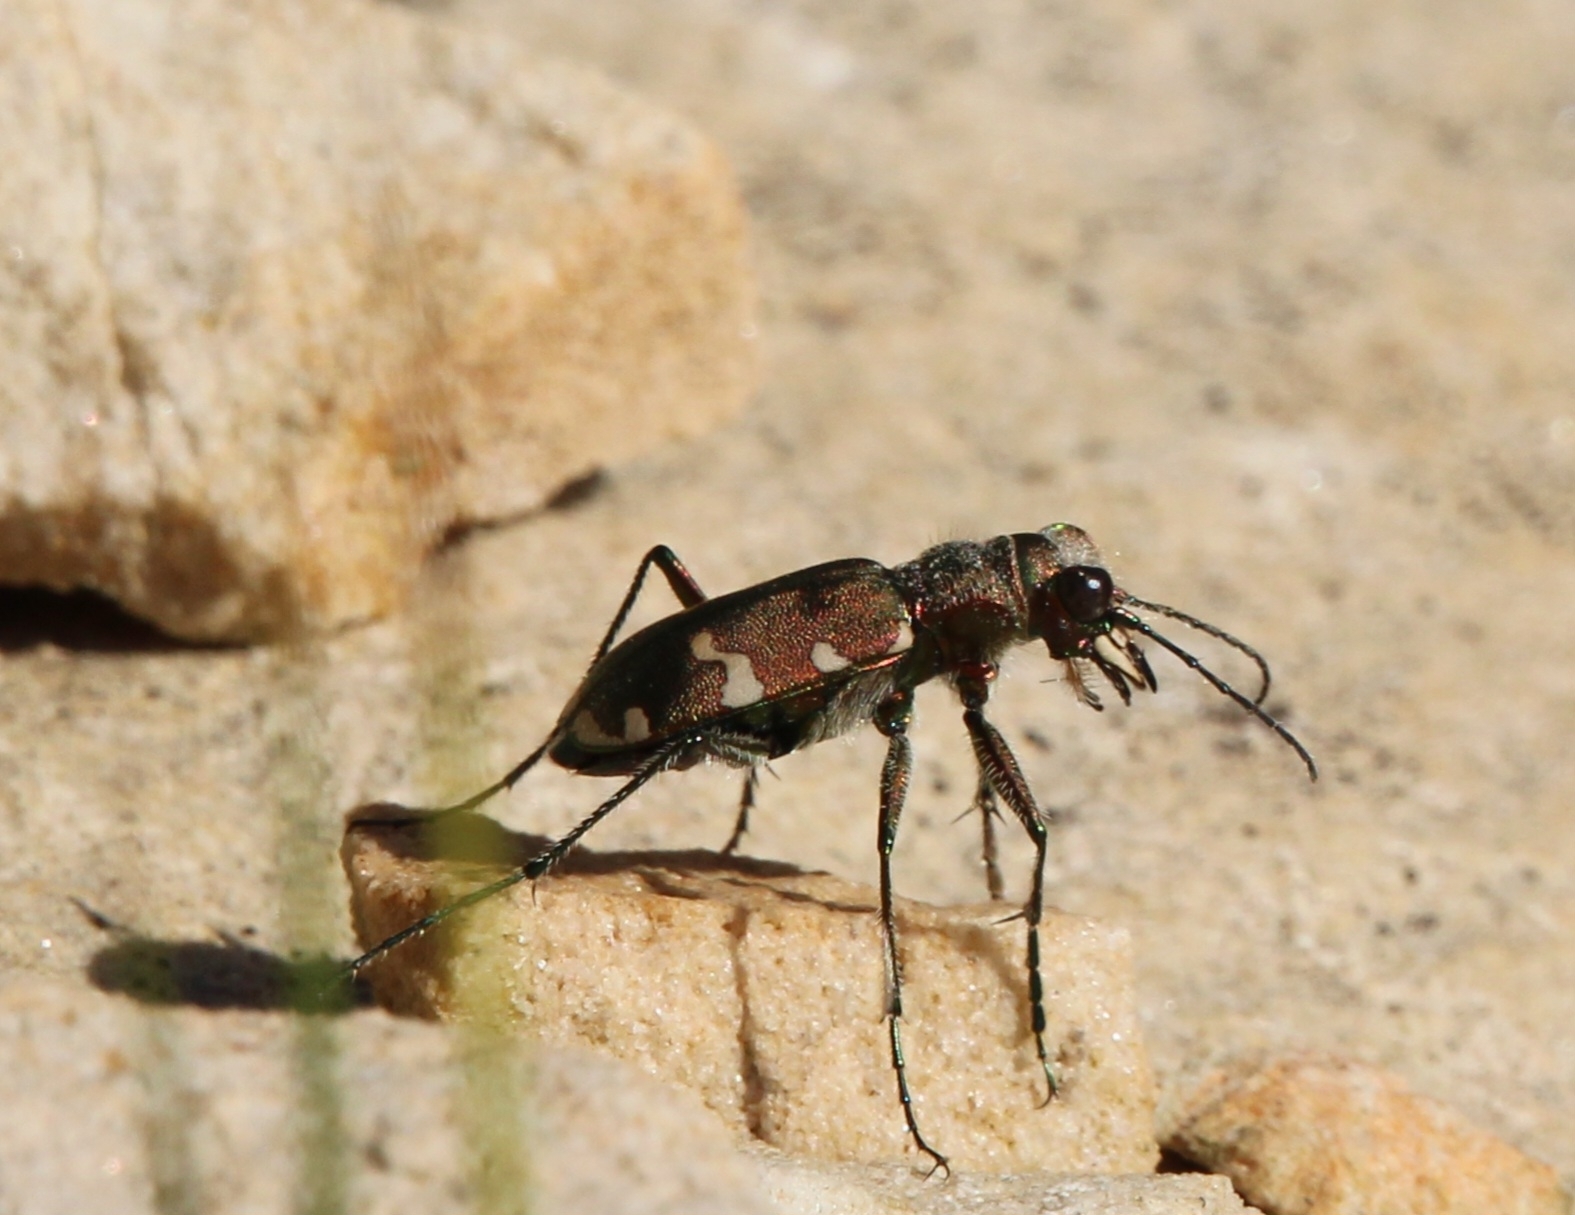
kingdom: Animalia
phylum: Arthropoda
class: Insecta
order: Coleoptera
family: Carabidae
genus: Cicindela
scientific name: Cicindela sylvicola
